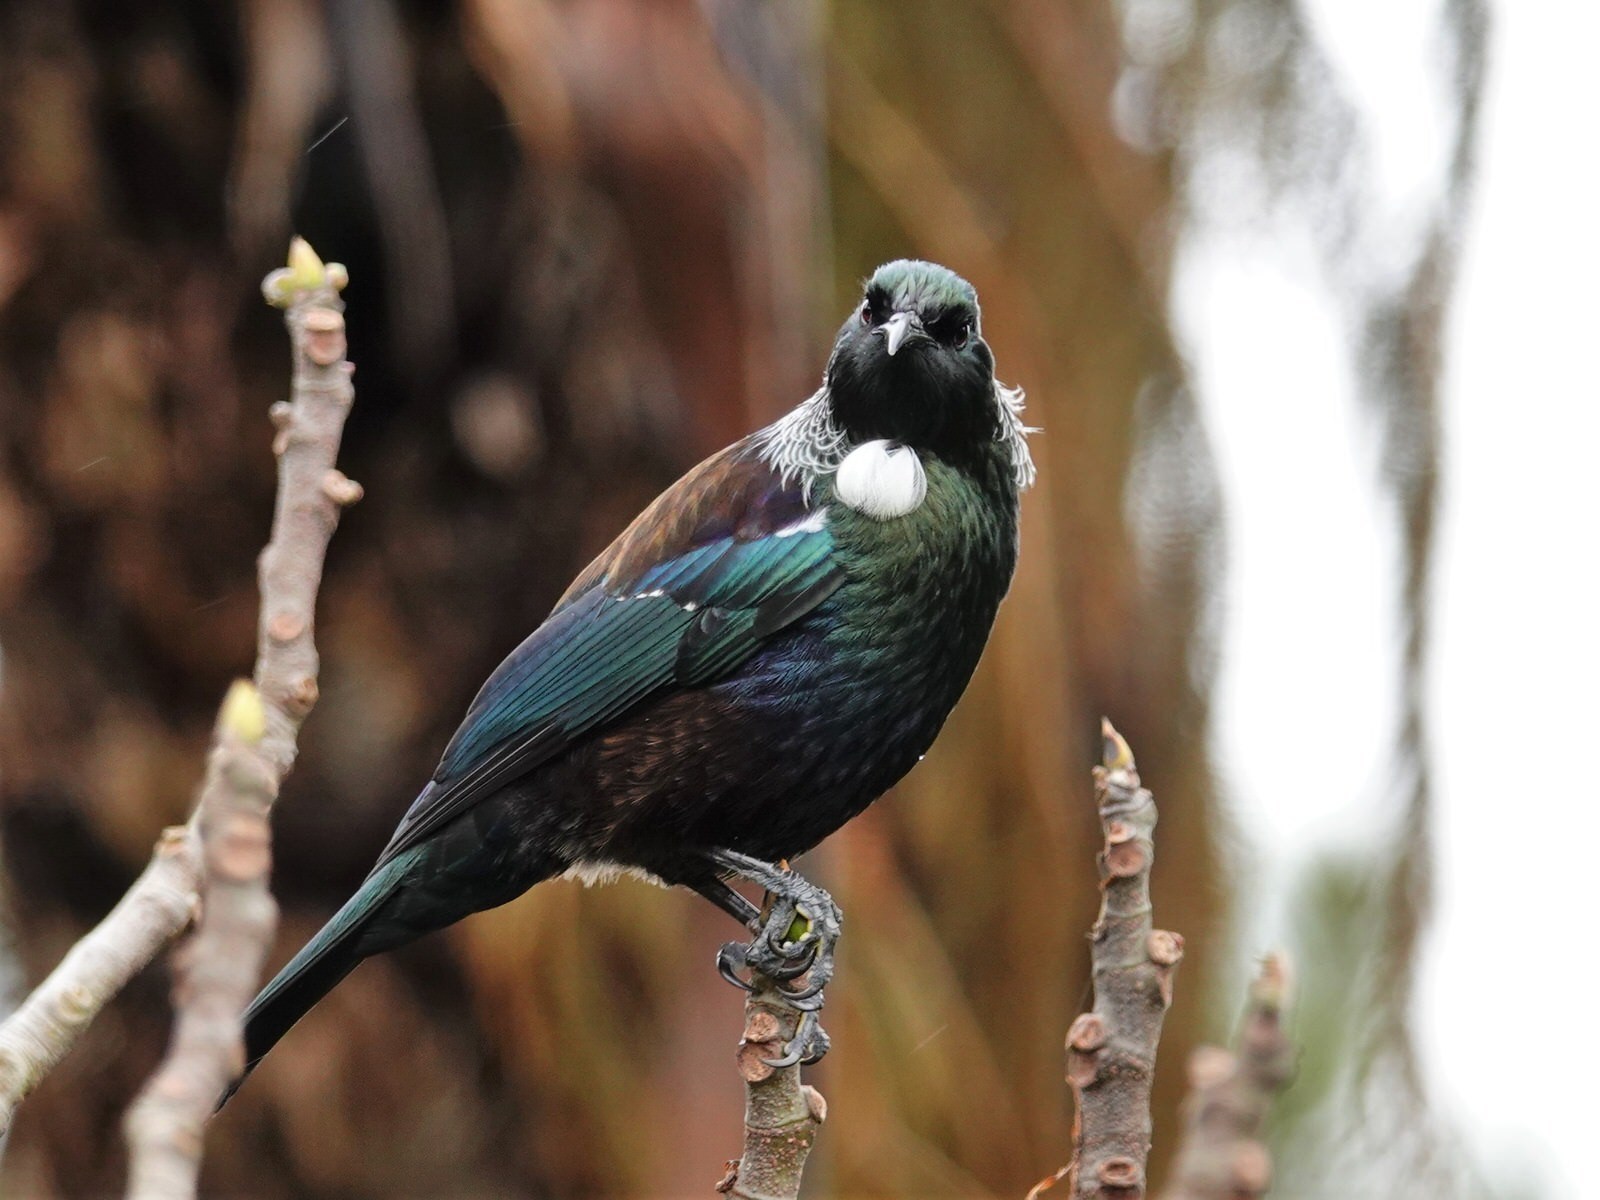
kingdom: Animalia
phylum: Chordata
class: Aves
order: Passeriformes
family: Meliphagidae
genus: Prosthemadera
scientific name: Prosthemadera novaeseelandiae
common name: Tui
